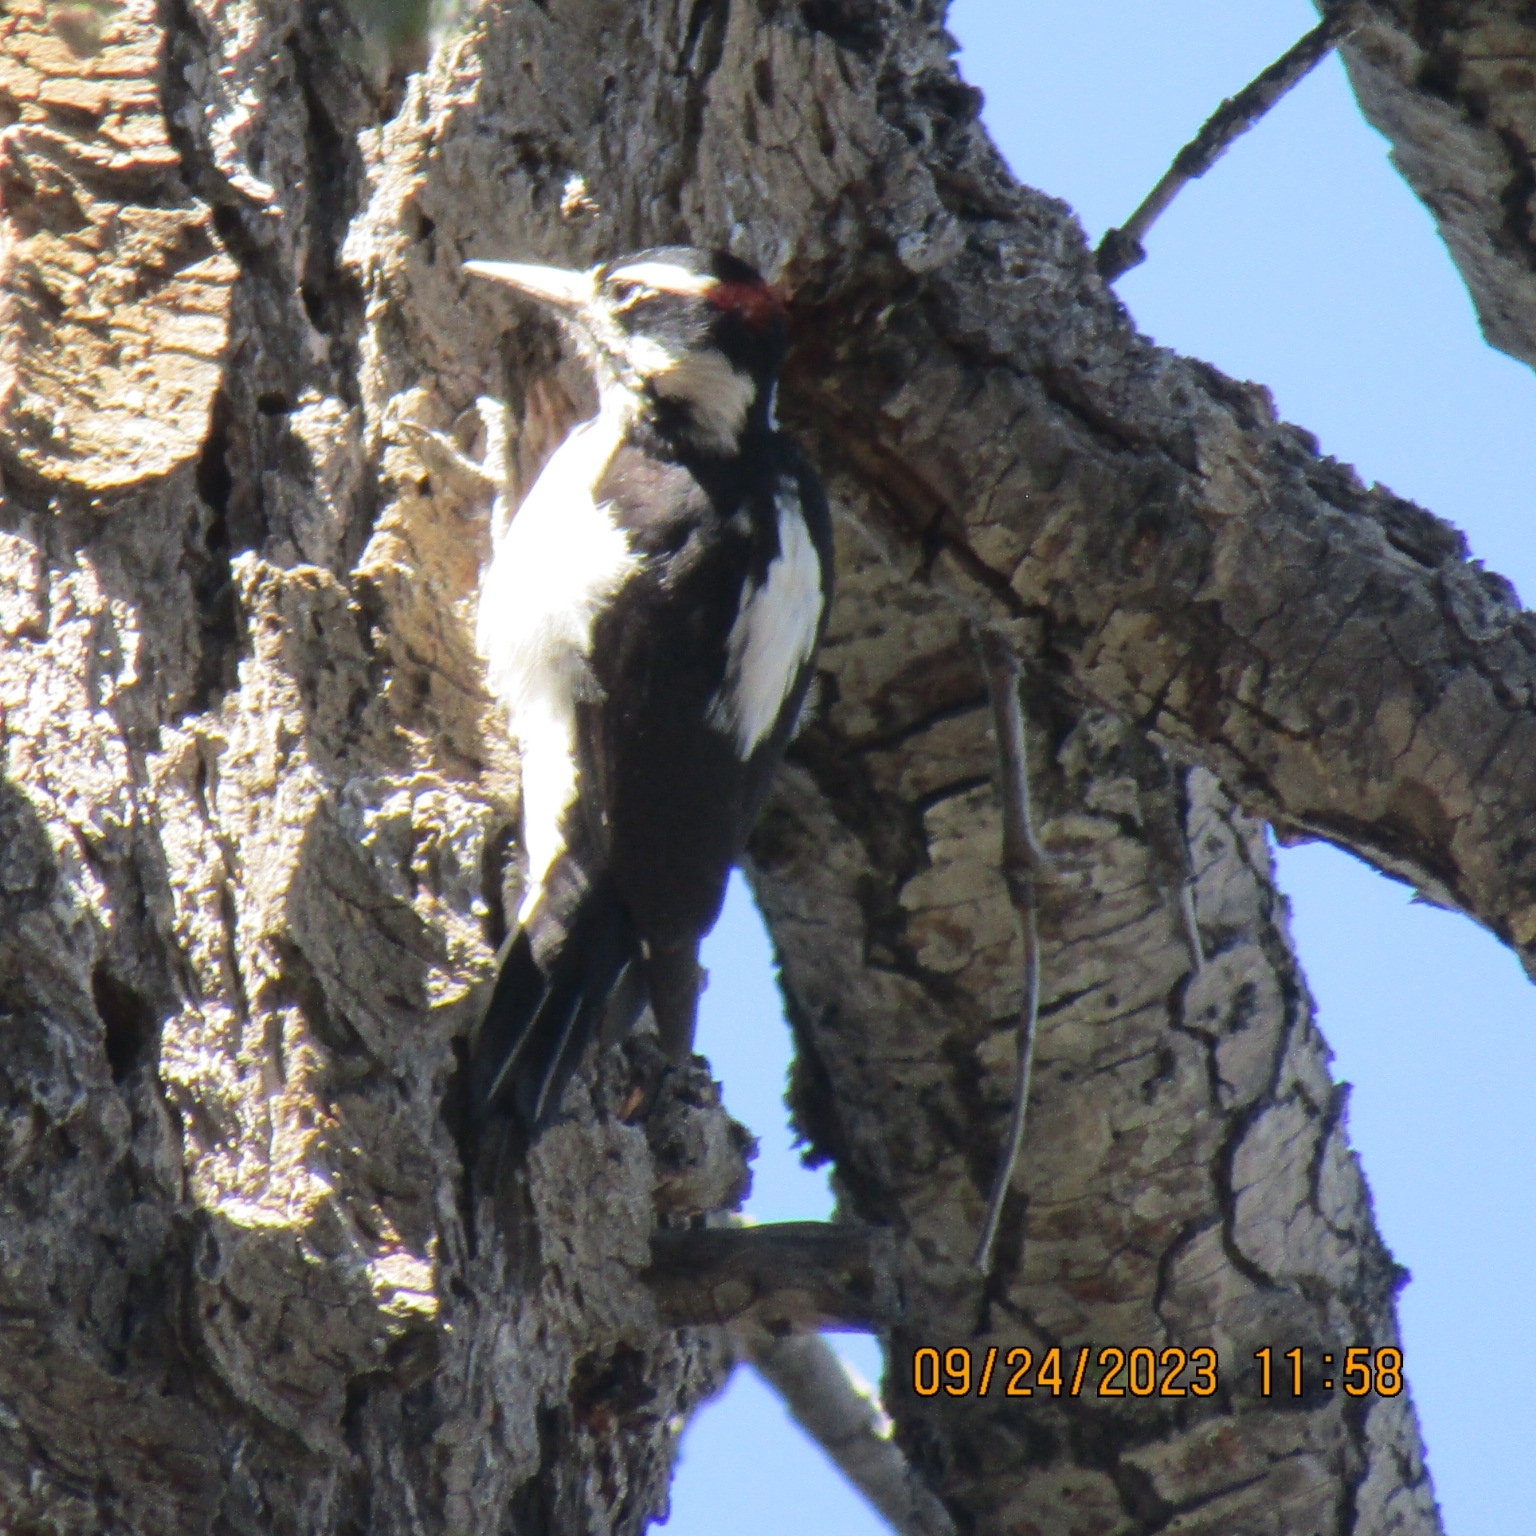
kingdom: Animalia
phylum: Chordata
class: Aves
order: Piciformes
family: Picidae
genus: Leuconotopicus
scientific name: Leuconotopicus villosus
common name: Hairy woodpecker
